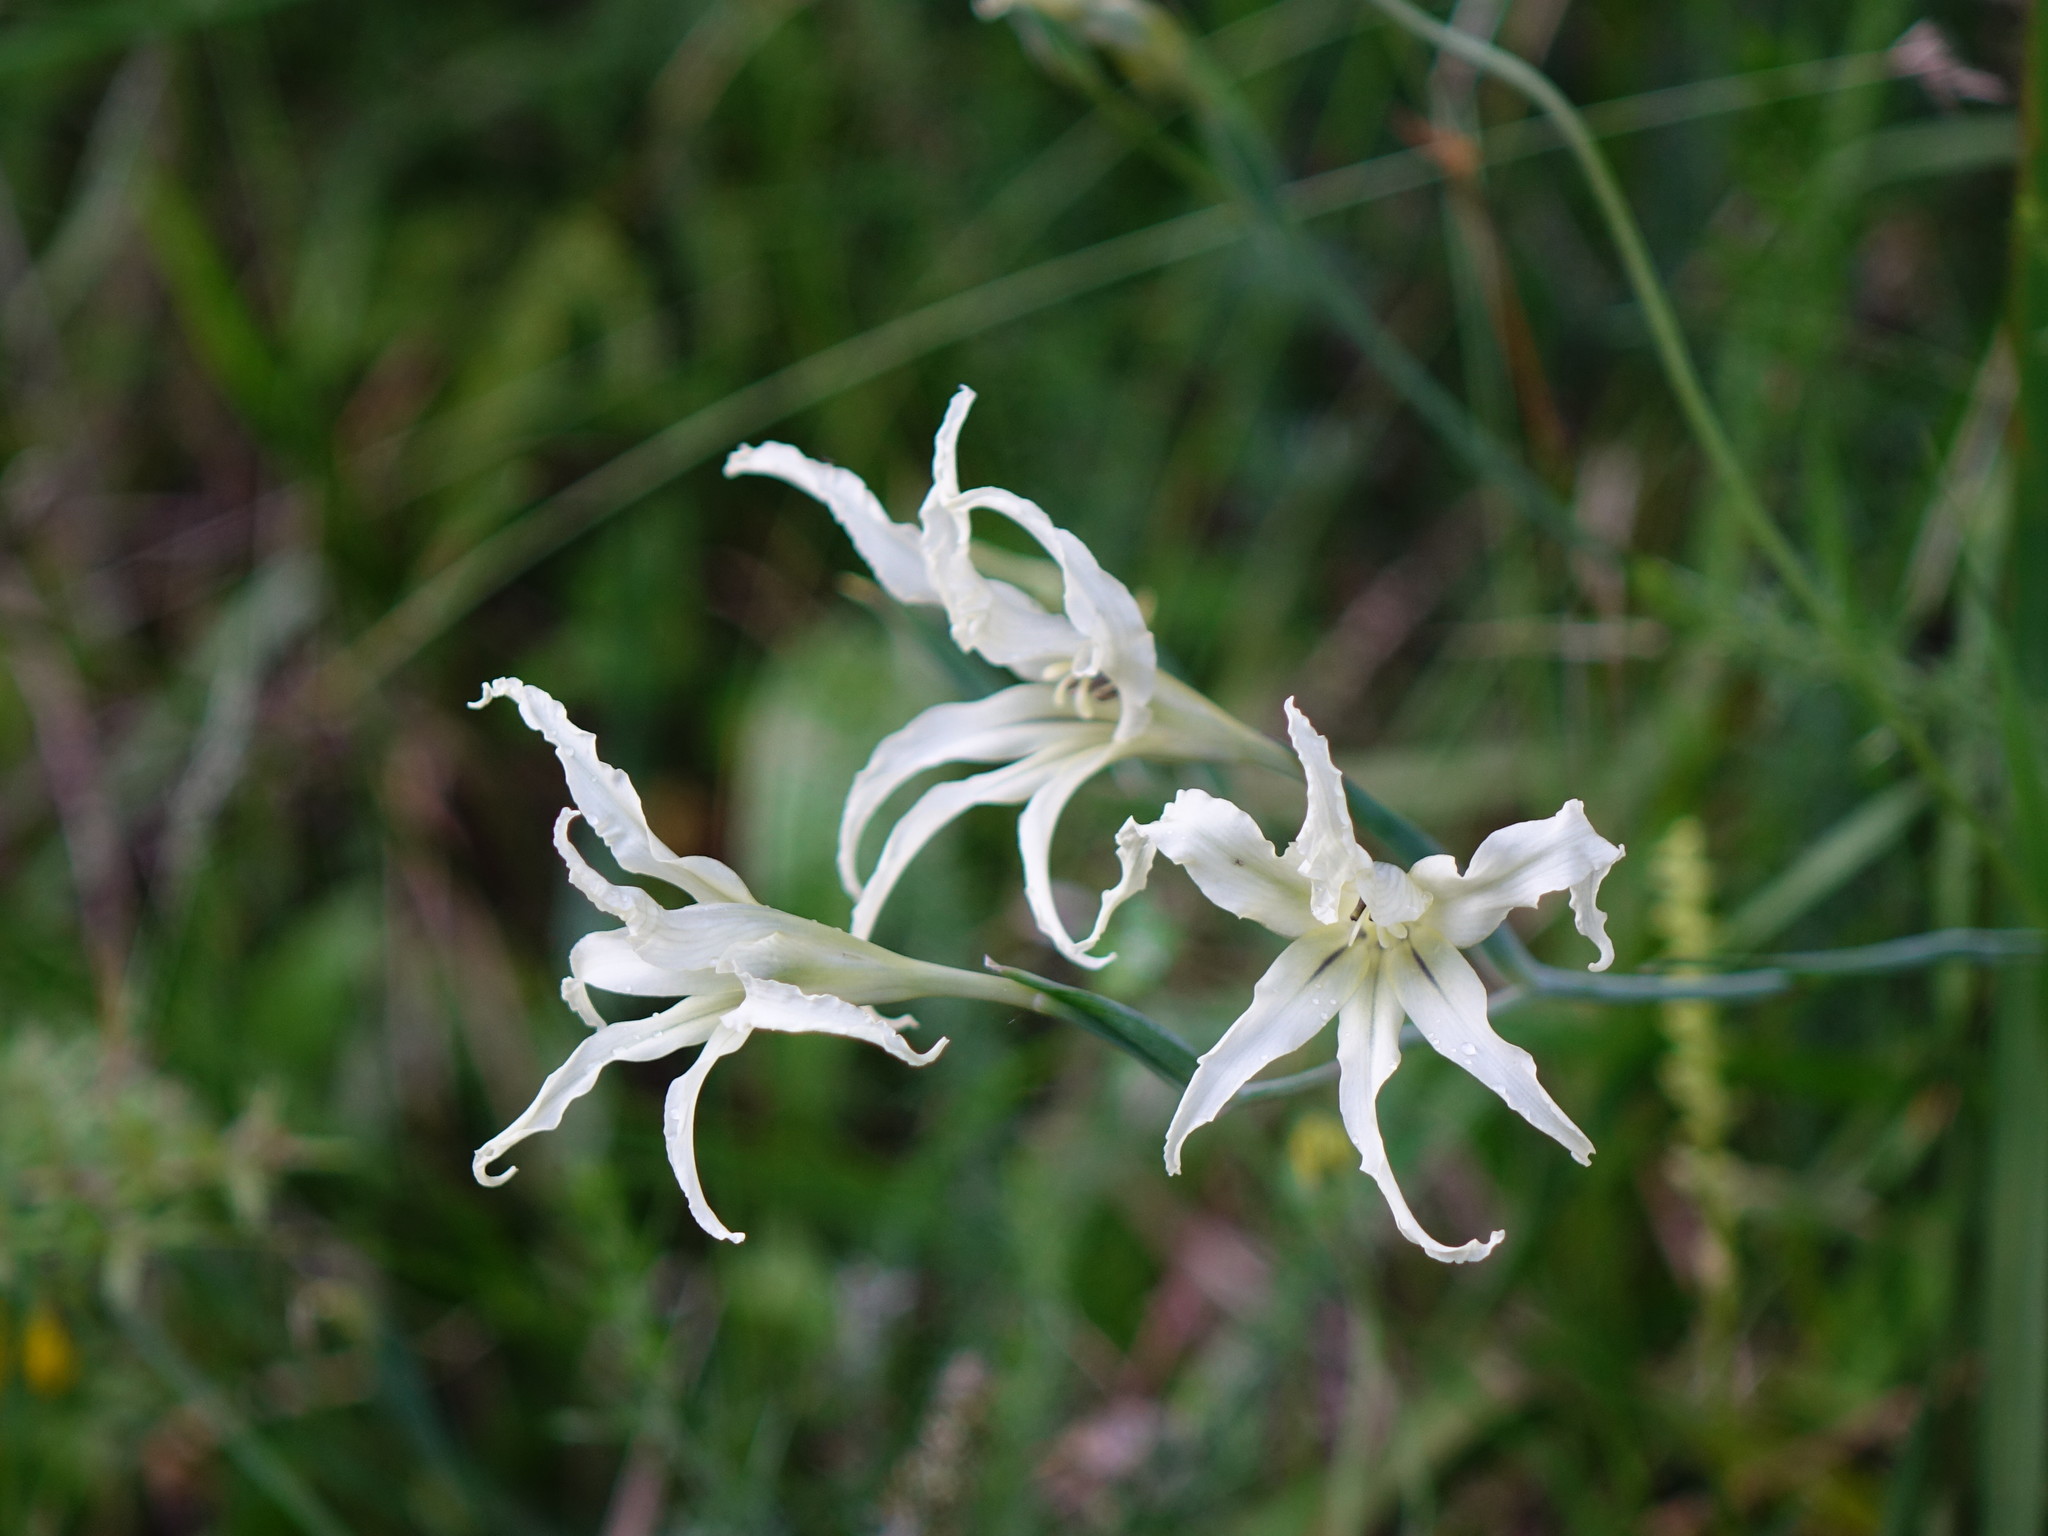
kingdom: Plantae
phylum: Tracheophyta
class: Liliopsida
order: Asparagales
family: Iridaceae
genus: Gladiolus
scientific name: Gladiolus undulatus
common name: Large painted-lady
